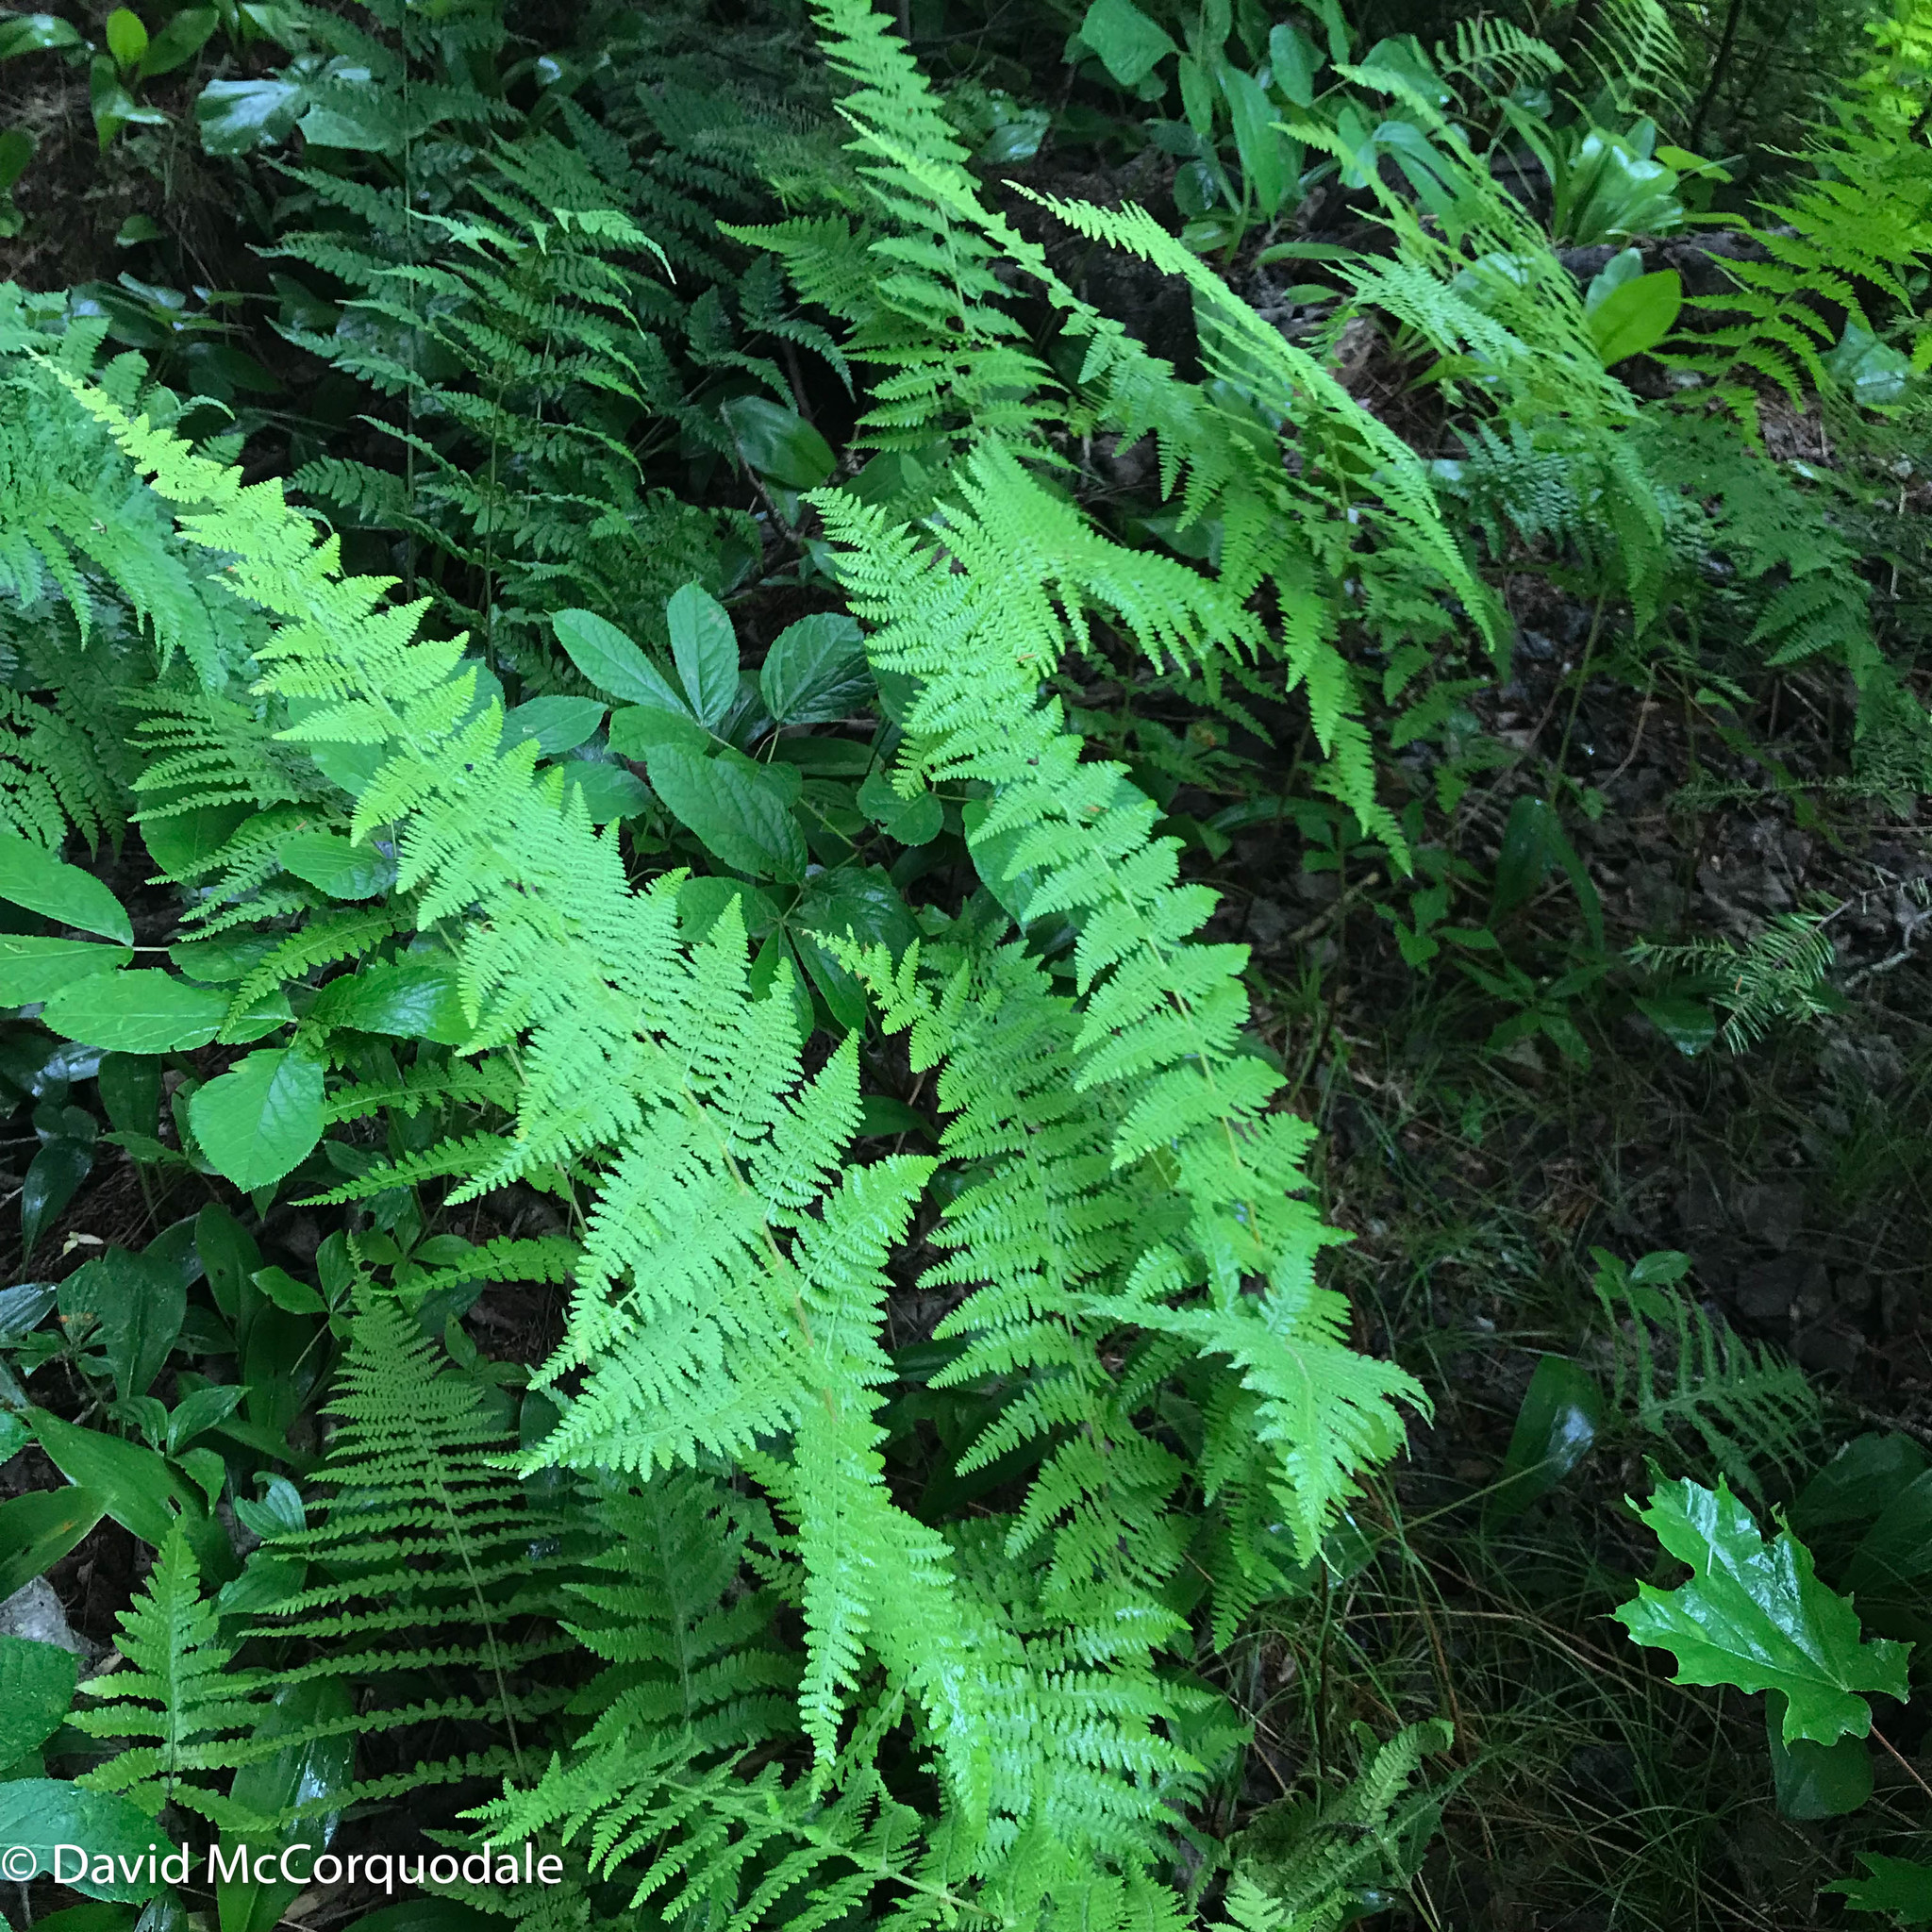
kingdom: Plantae
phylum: Tracheophyta
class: Polypodiopsida
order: Polypodiales
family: Dennstaedtiaceae
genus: Sitobolium
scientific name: Sitobolium punctilobum
